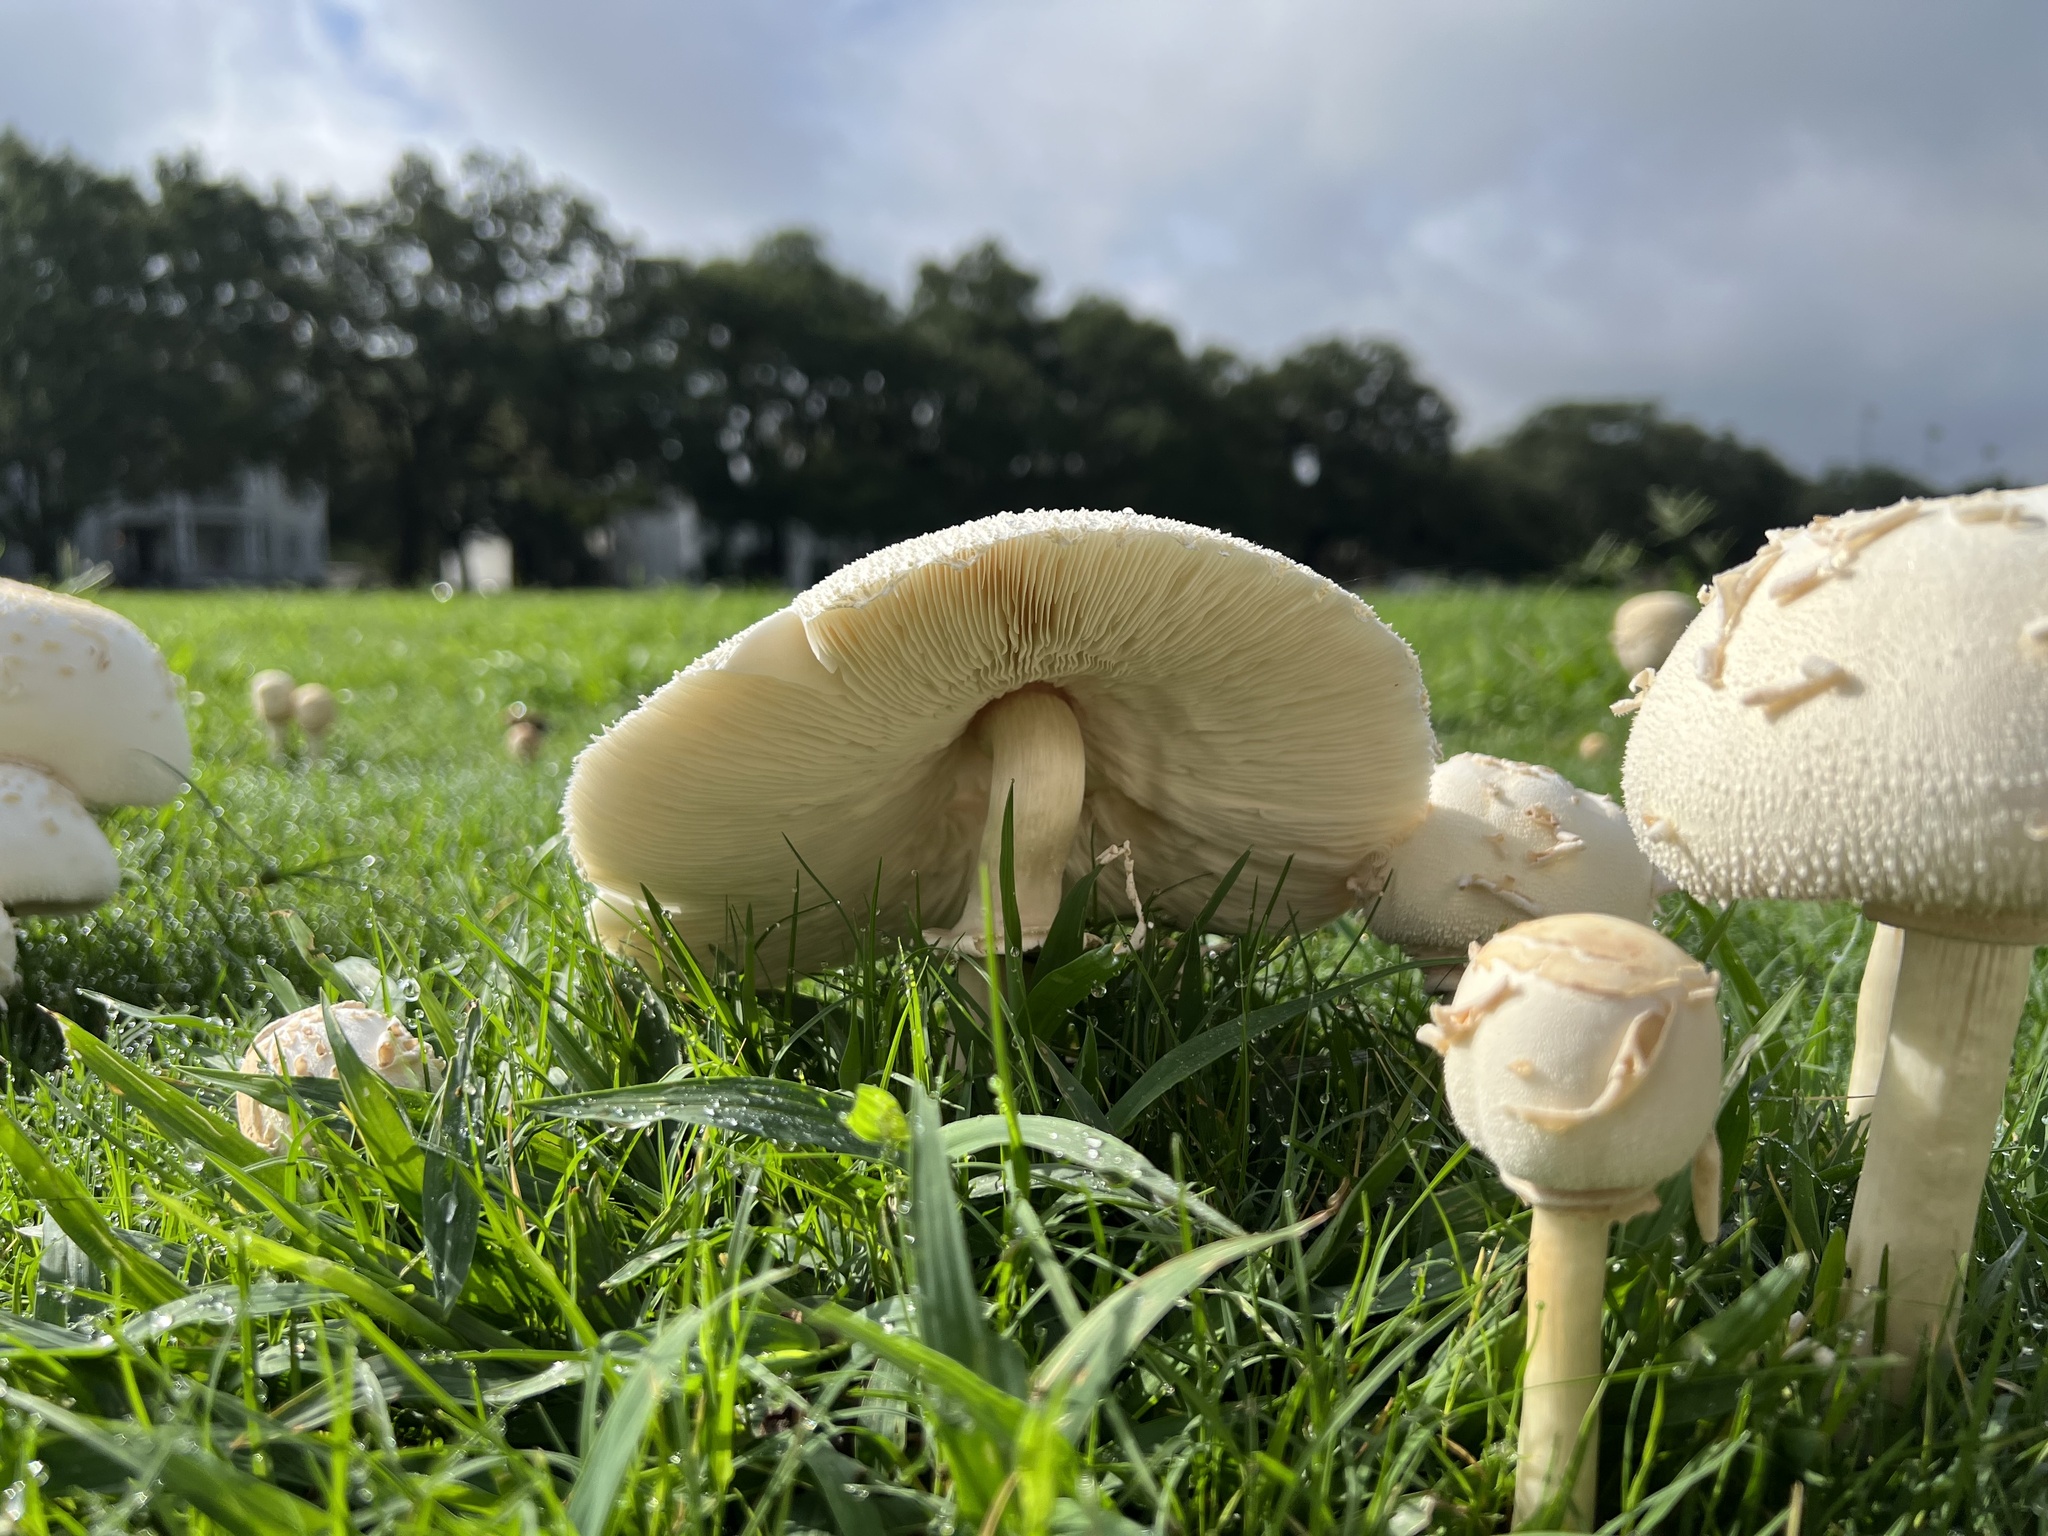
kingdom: Fungi
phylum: Basidiomycota
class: Agaricomycetes
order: Agaricales
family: Agaricaceae
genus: Chlorophyllum
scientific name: Chlorophyllum molybdites
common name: False parasol
